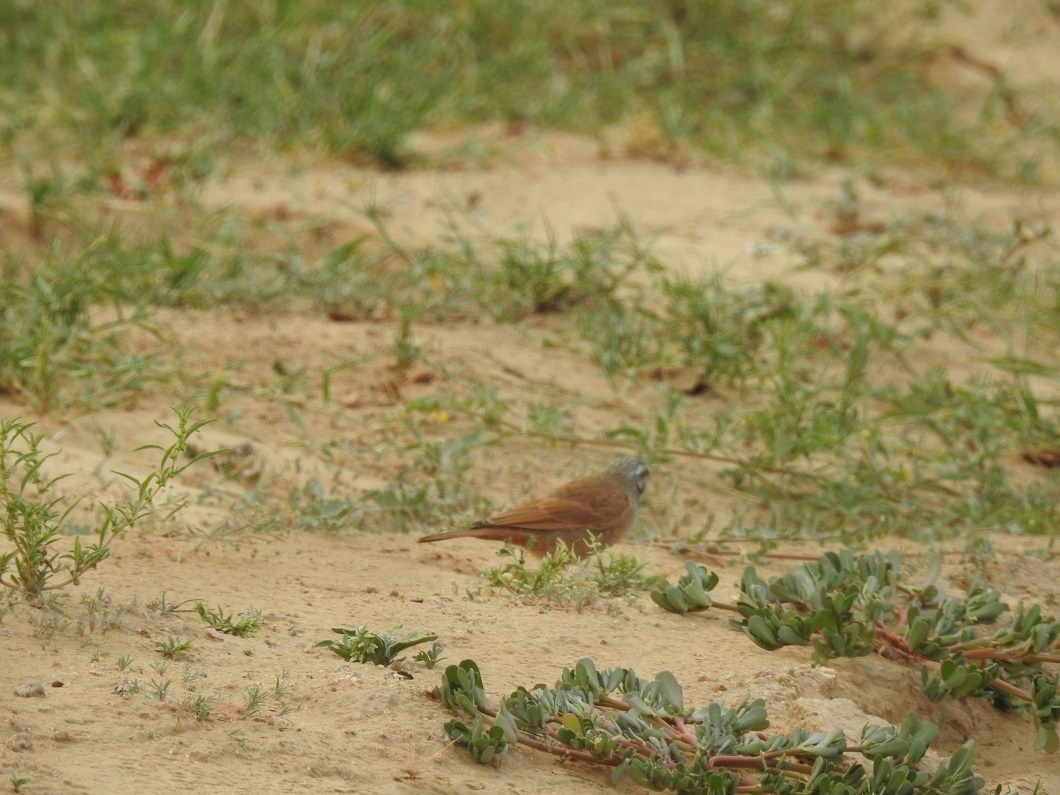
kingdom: Animalia
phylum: Chordata
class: Aves
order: Passeriformes
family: Emberizidae
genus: Emberiza
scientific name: Emberiza sahari
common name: House bunting
